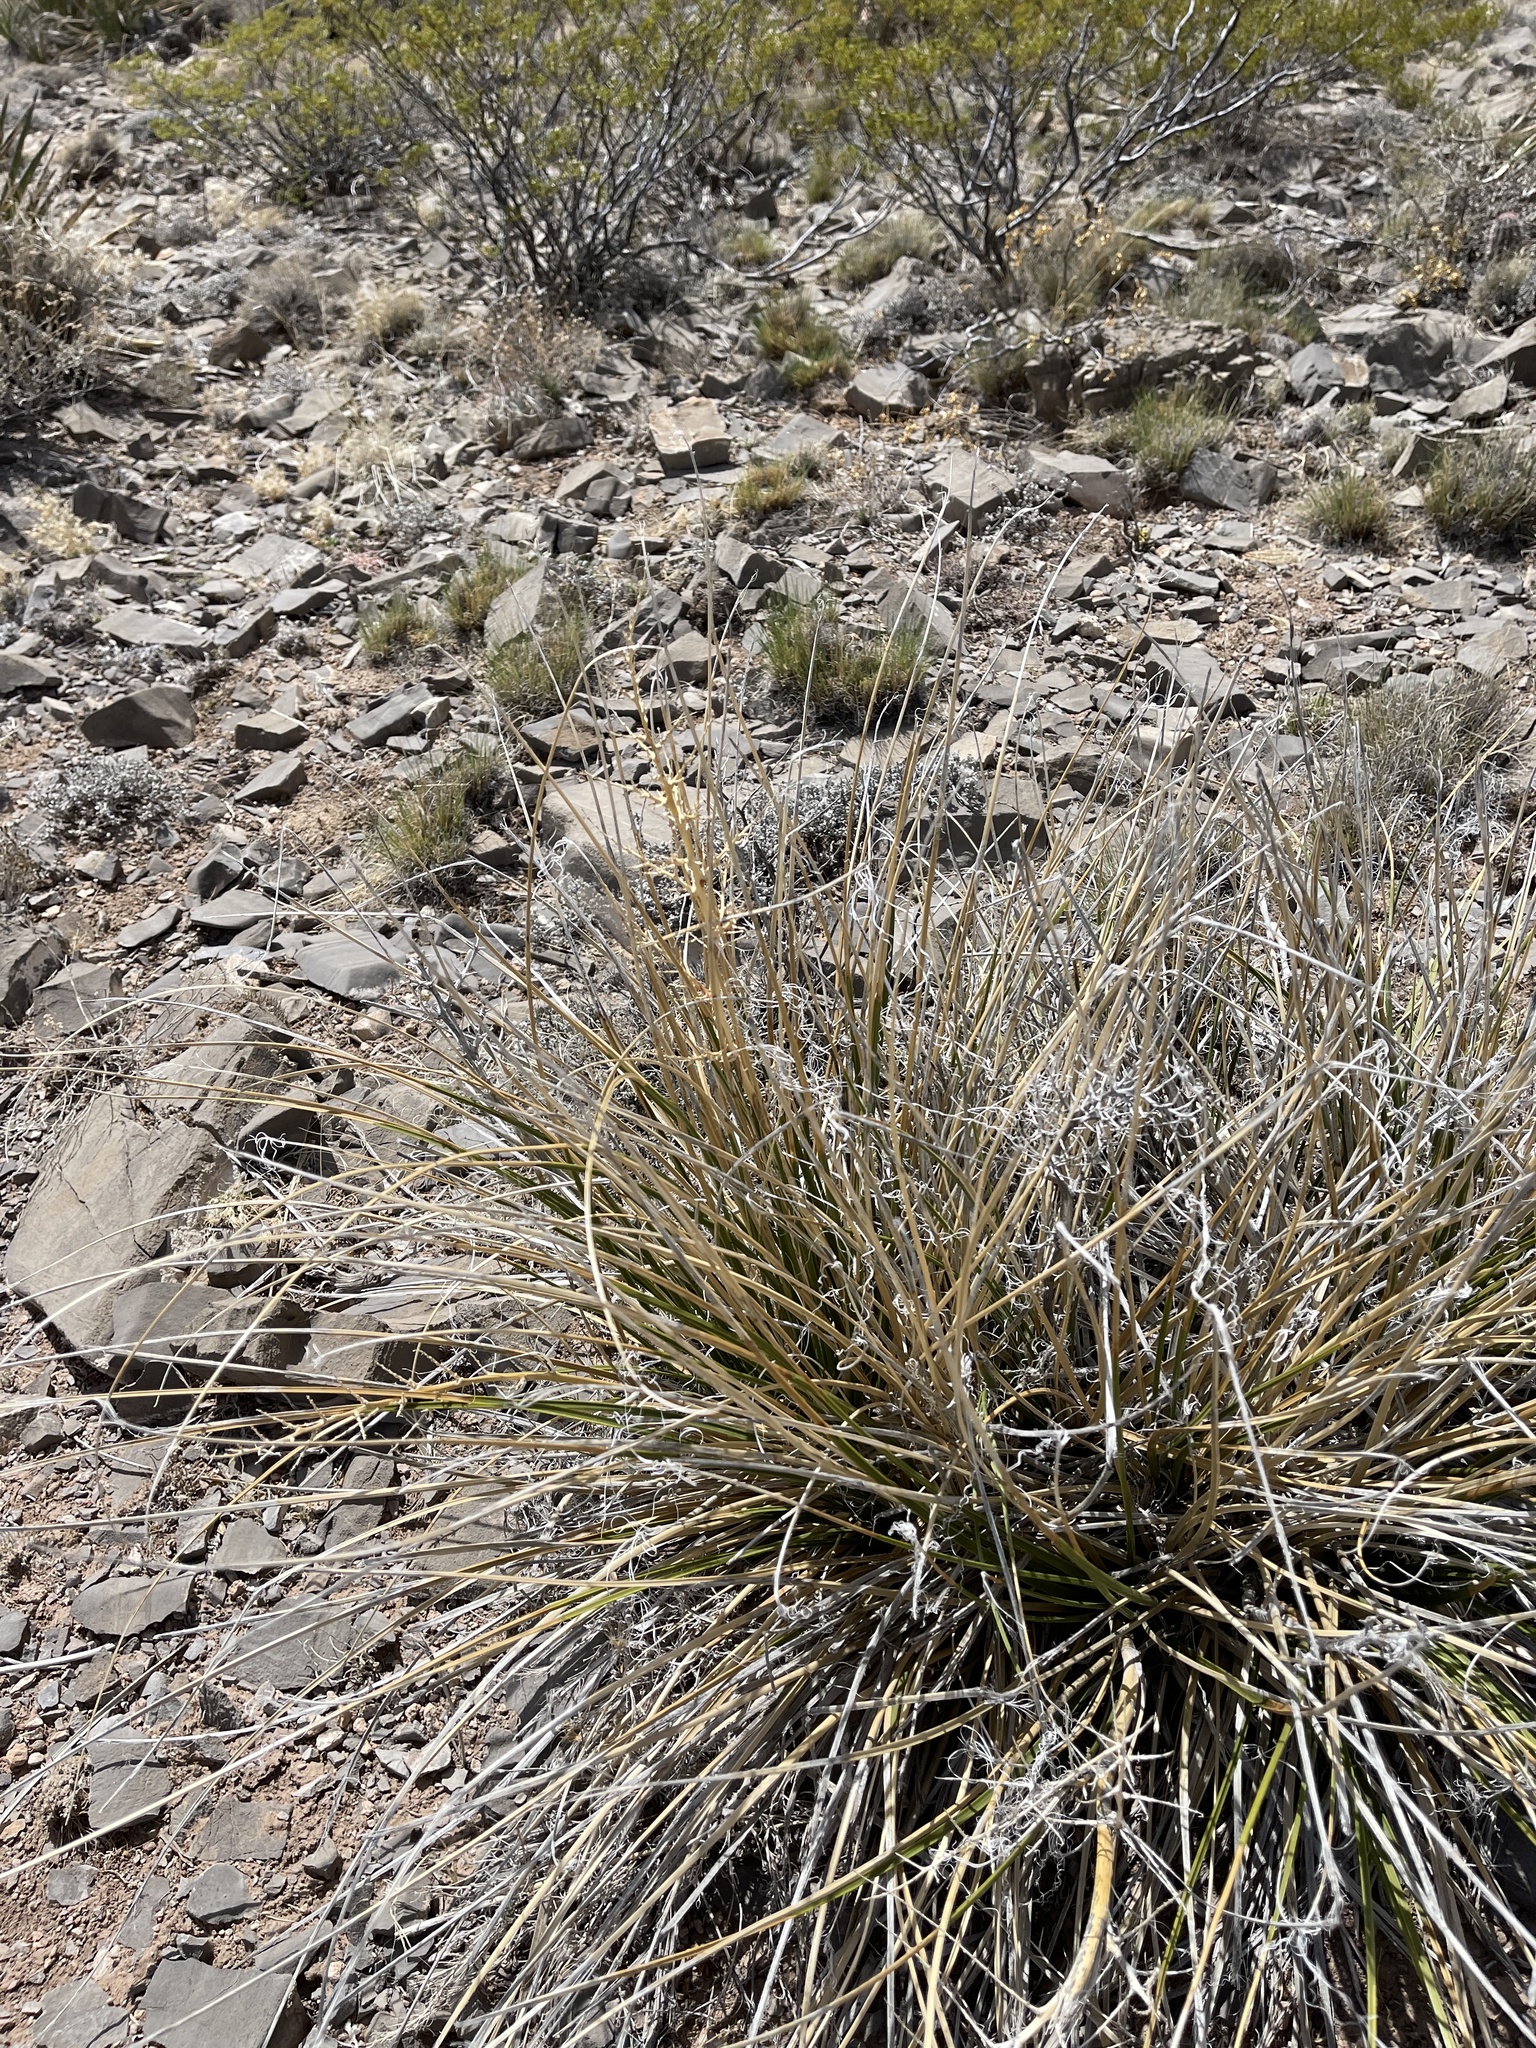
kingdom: Plantae
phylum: Tracheophyta
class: Liliopsida
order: Asparagales
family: Asparagaceae
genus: Nolina
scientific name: Nolina texana
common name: Texas sacahuiste
